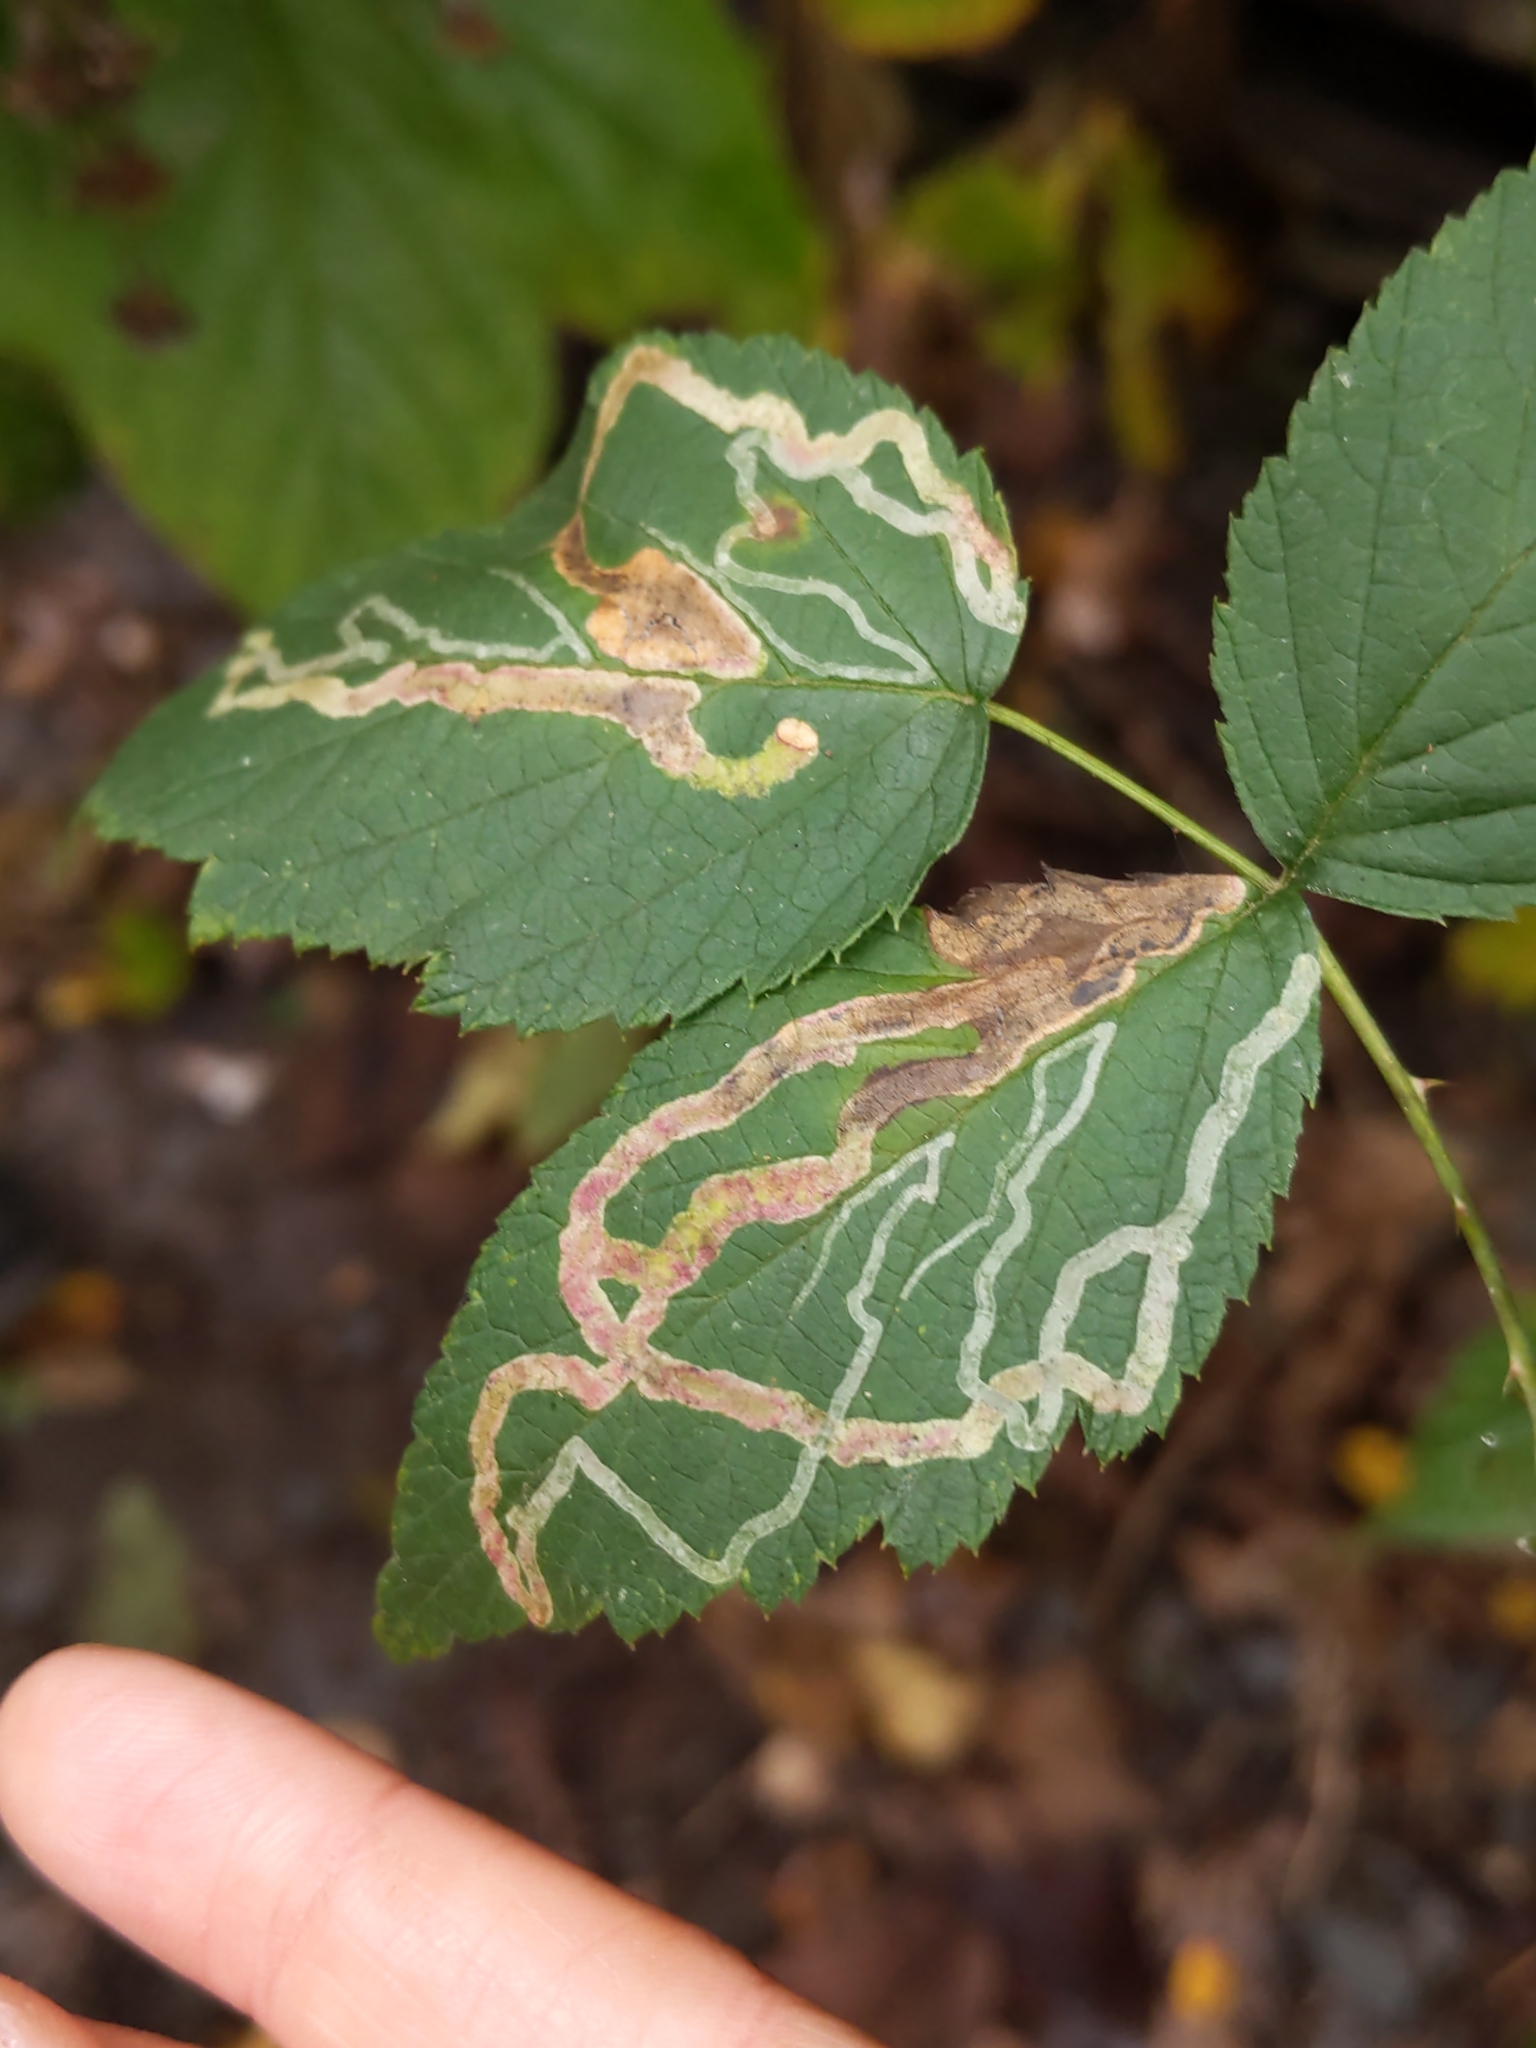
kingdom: Animalia
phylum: Arthropoda
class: Insecta
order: Diptera
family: Agromyzidae
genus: Agromyza
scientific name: Agromyza vockerothi
